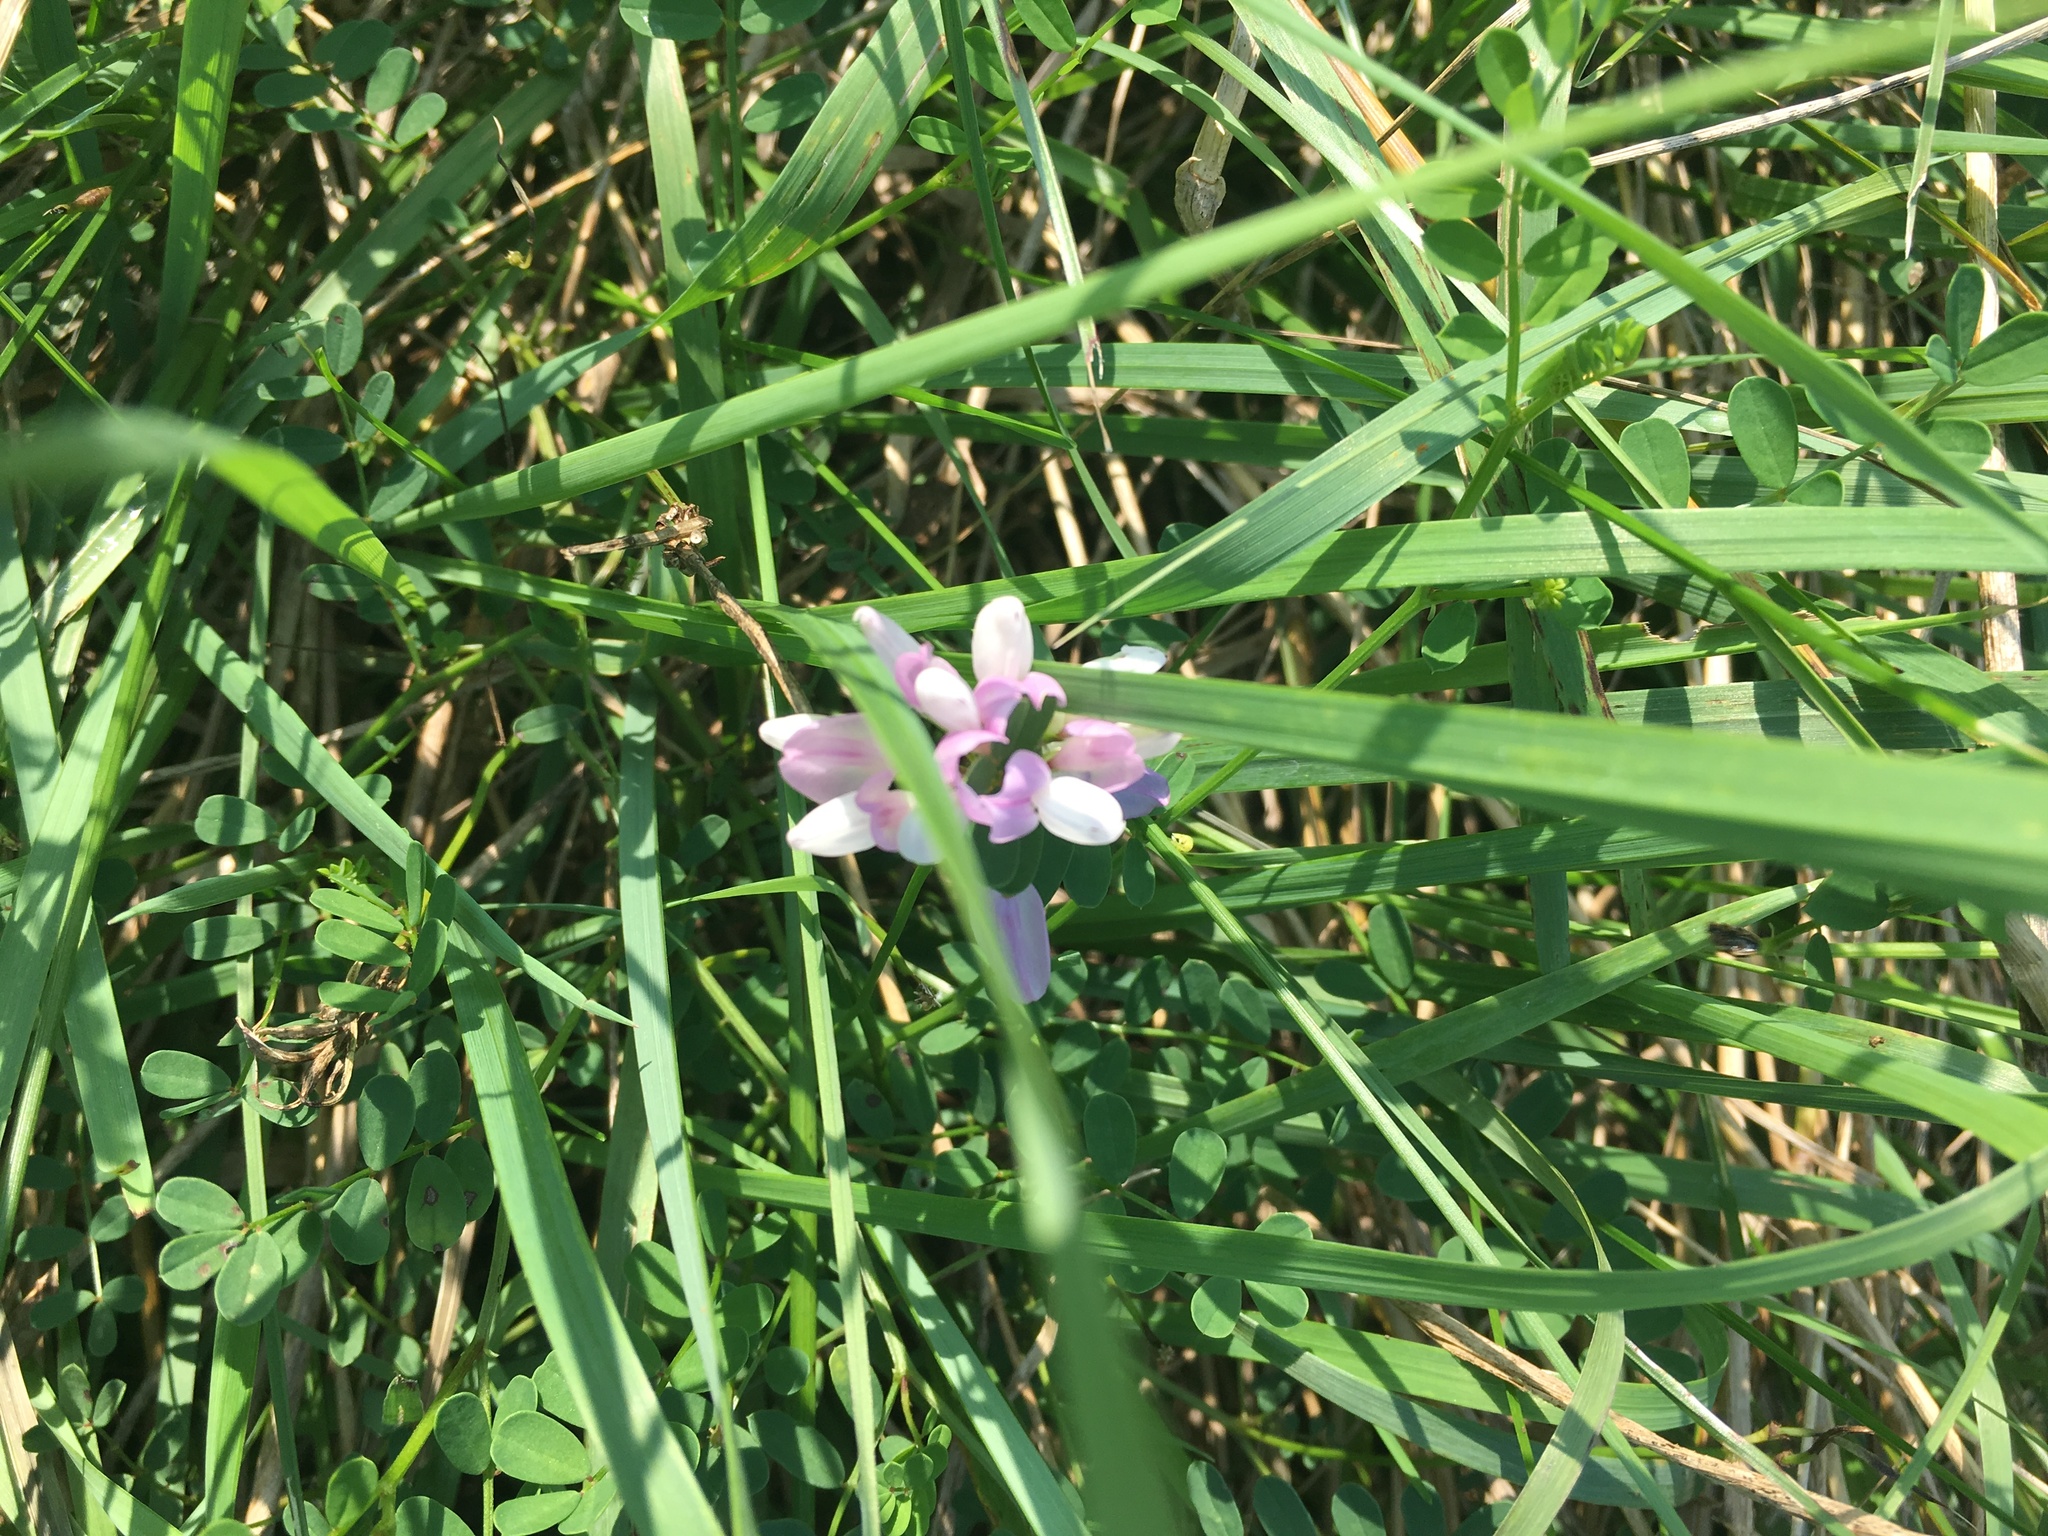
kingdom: Plantae
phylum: Tracheophyta
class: Magnoliopsida
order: Fabales
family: Fabaceae
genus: Coronilla
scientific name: Coronilla varia
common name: Crownvetch
